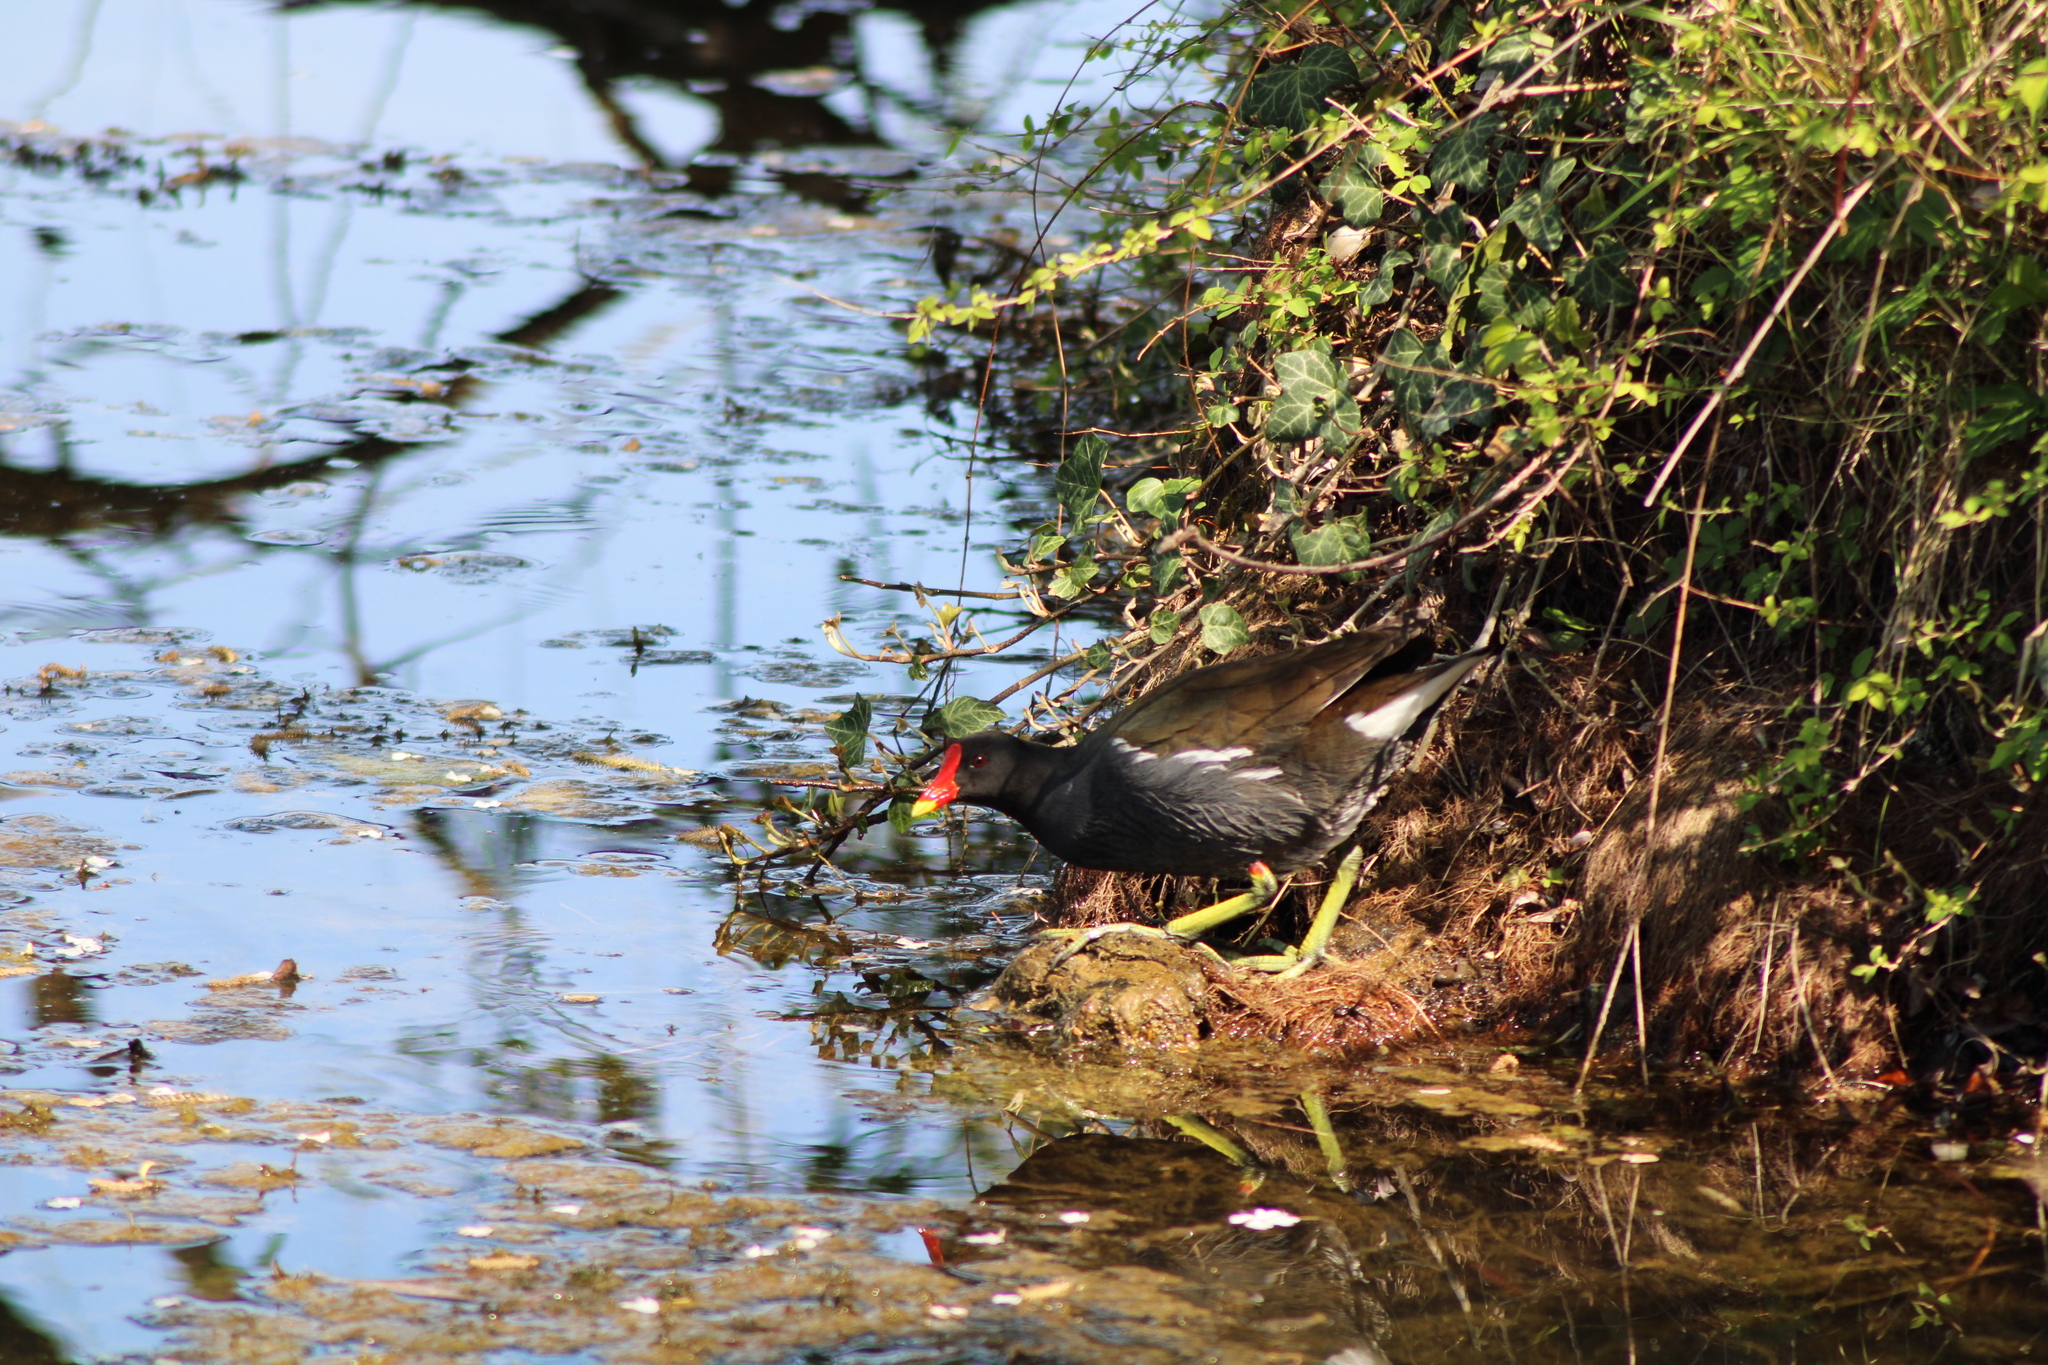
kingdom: Animalia
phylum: Chordata
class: Aves
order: Gruiformes
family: Rallidae
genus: Gallinula
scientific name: Gallinula chloropus
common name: Common moorhen
